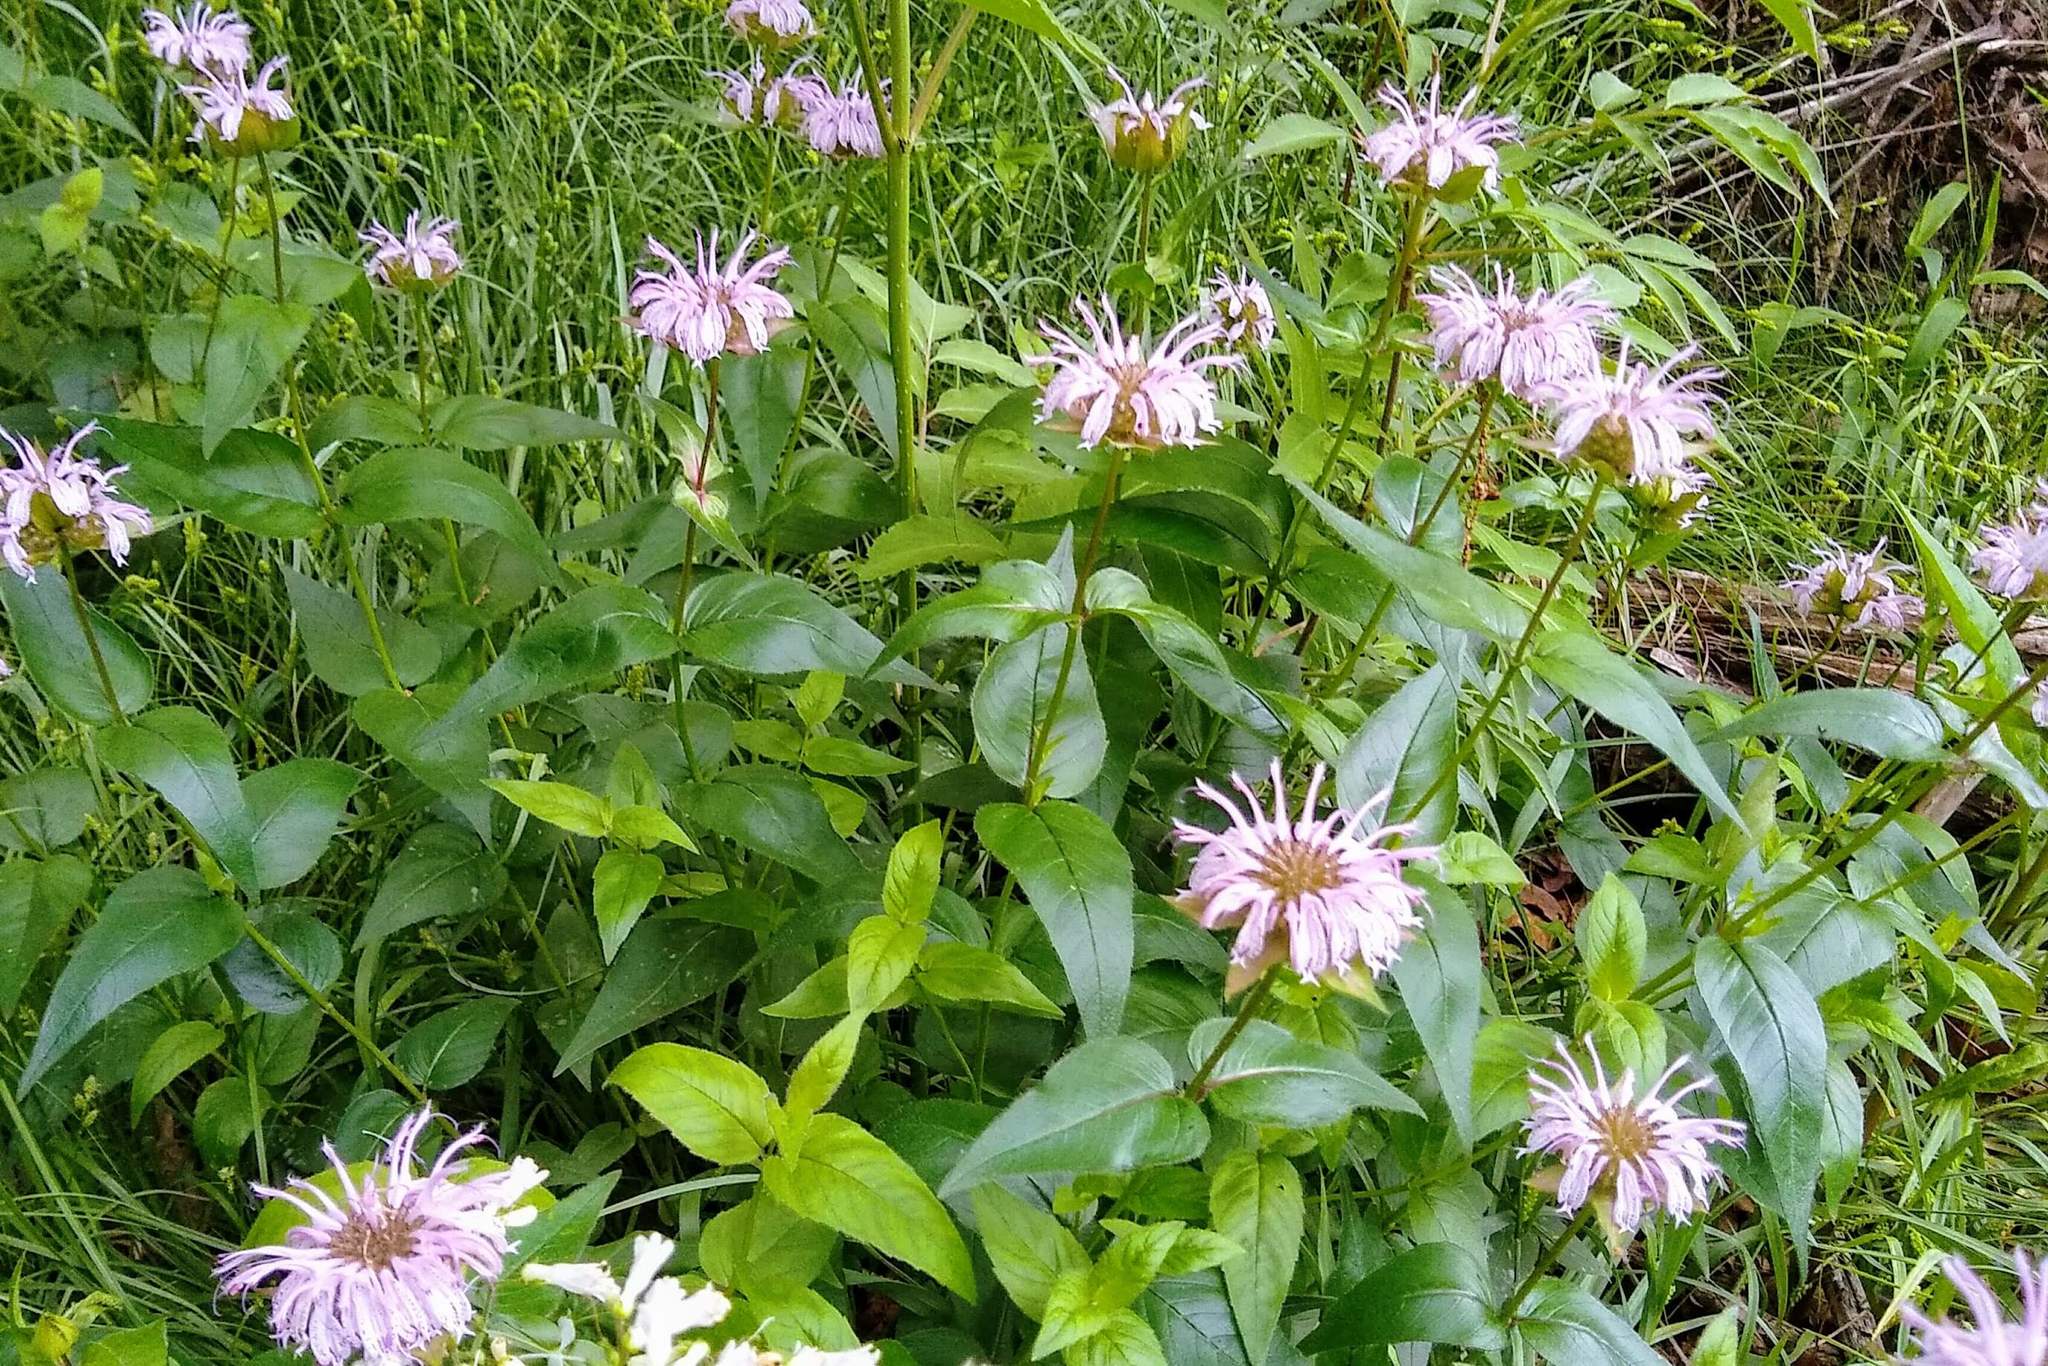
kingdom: Plantae
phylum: Tracheophyta
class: Magnoliopsida
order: Lamiales
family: Lamiaceae
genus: Monarda
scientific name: Monarda bradburiana
